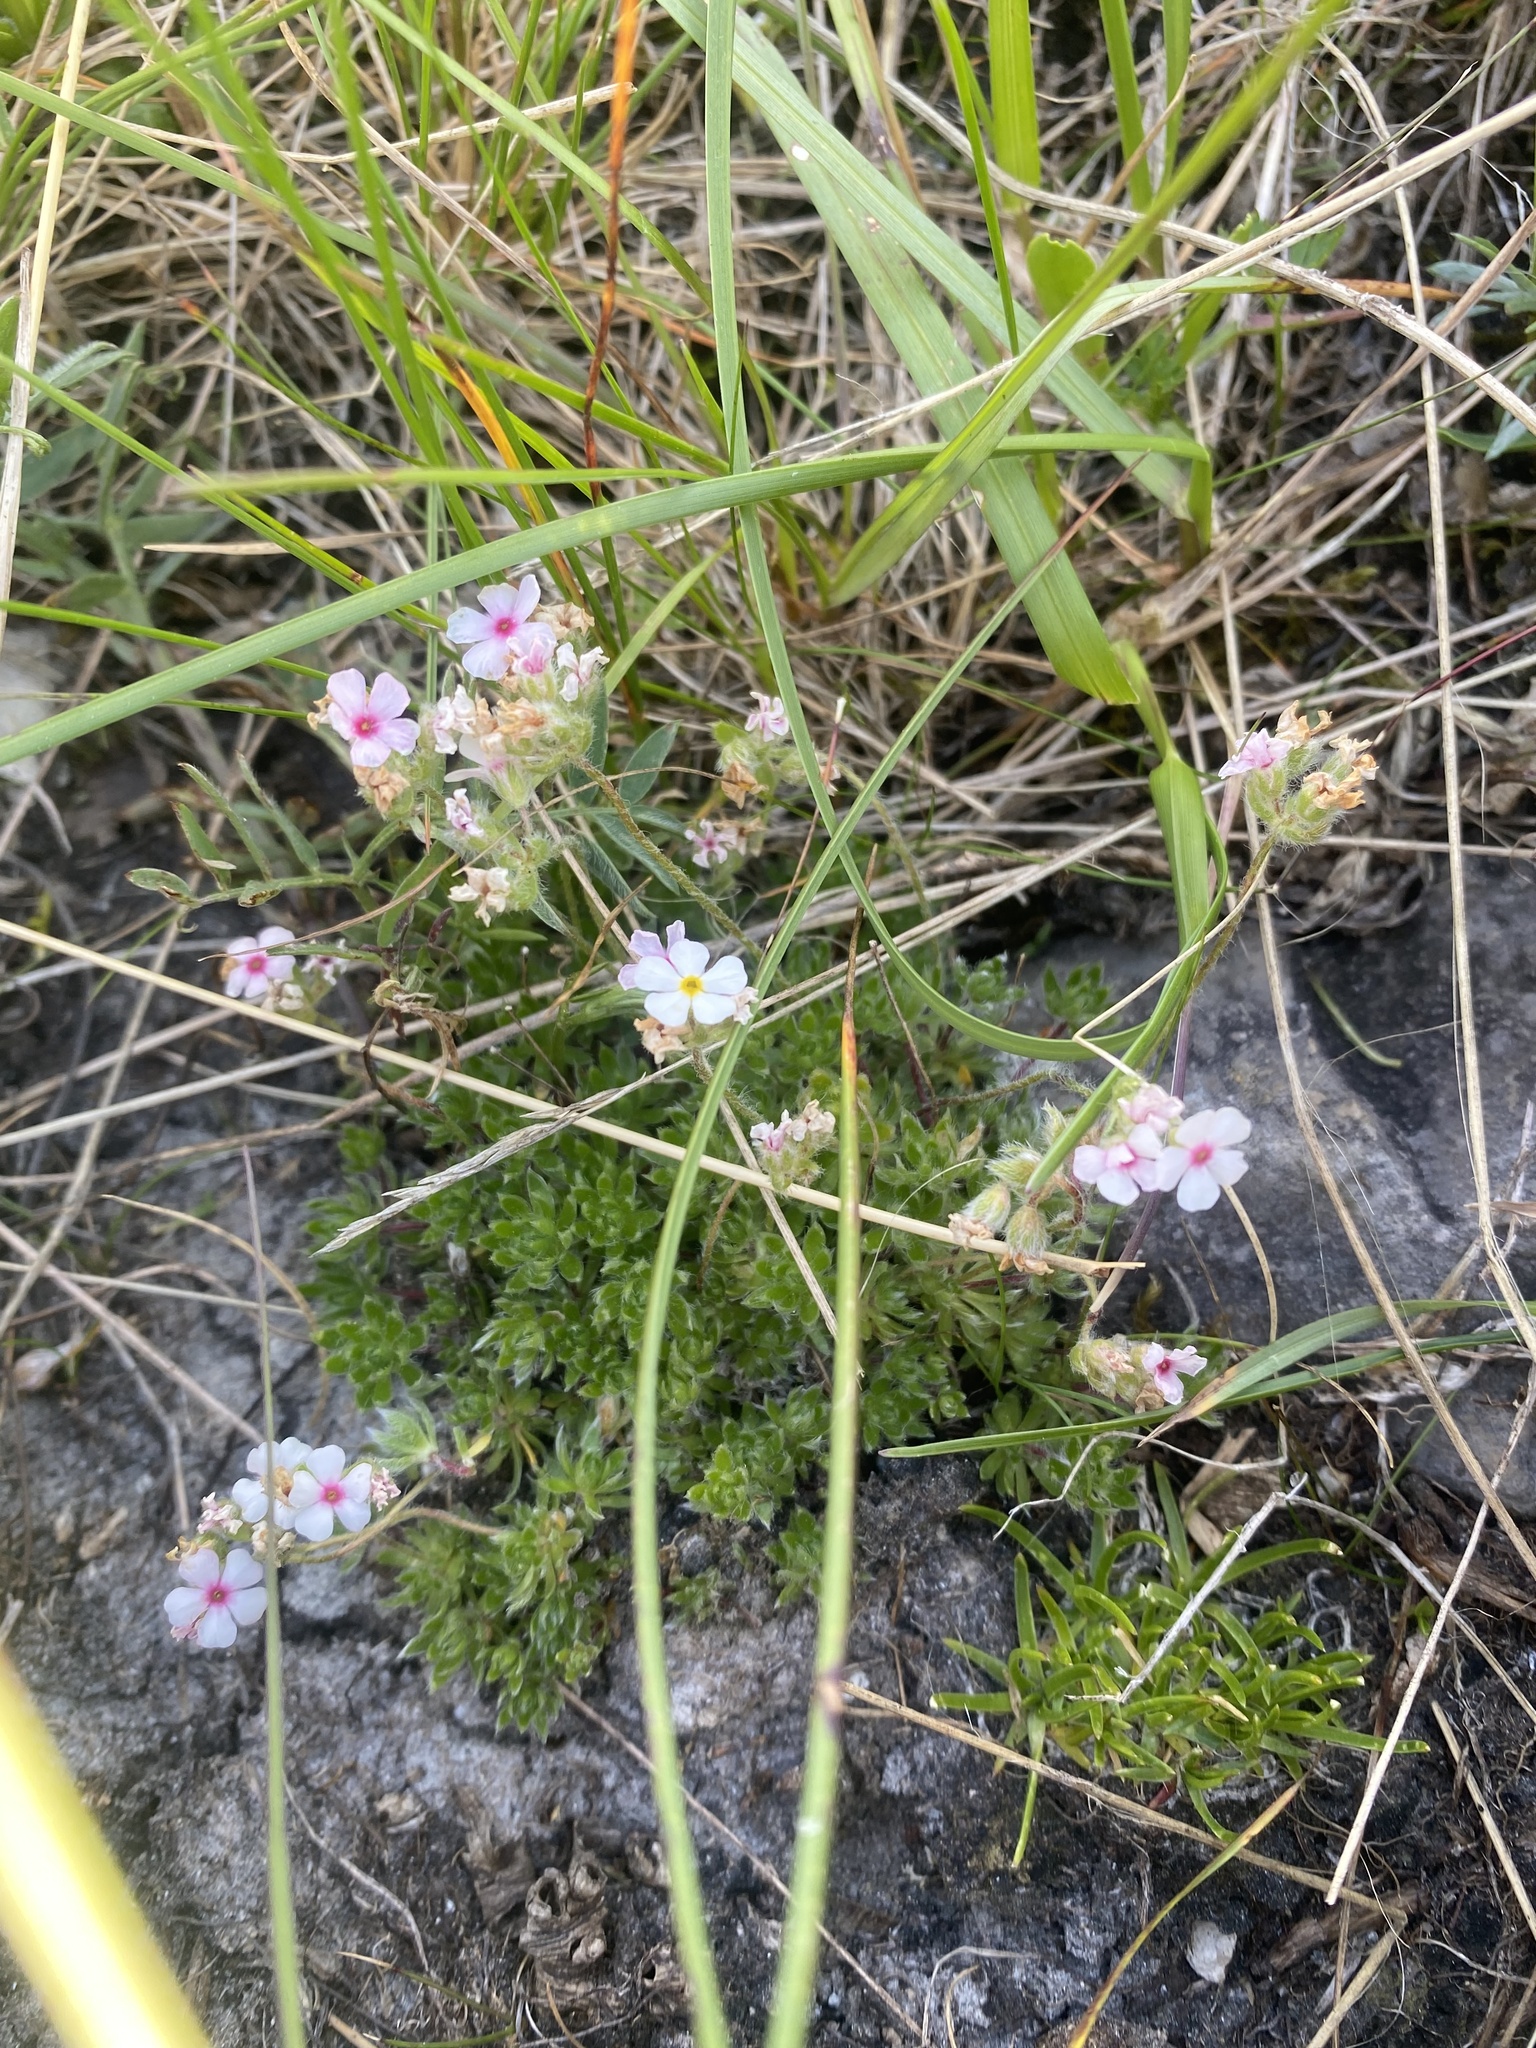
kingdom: Plantae
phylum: Tracheophyta
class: Magnoliopsida
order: Ericales
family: Primulaceae
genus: Androsace
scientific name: Androsace chamaejasme
